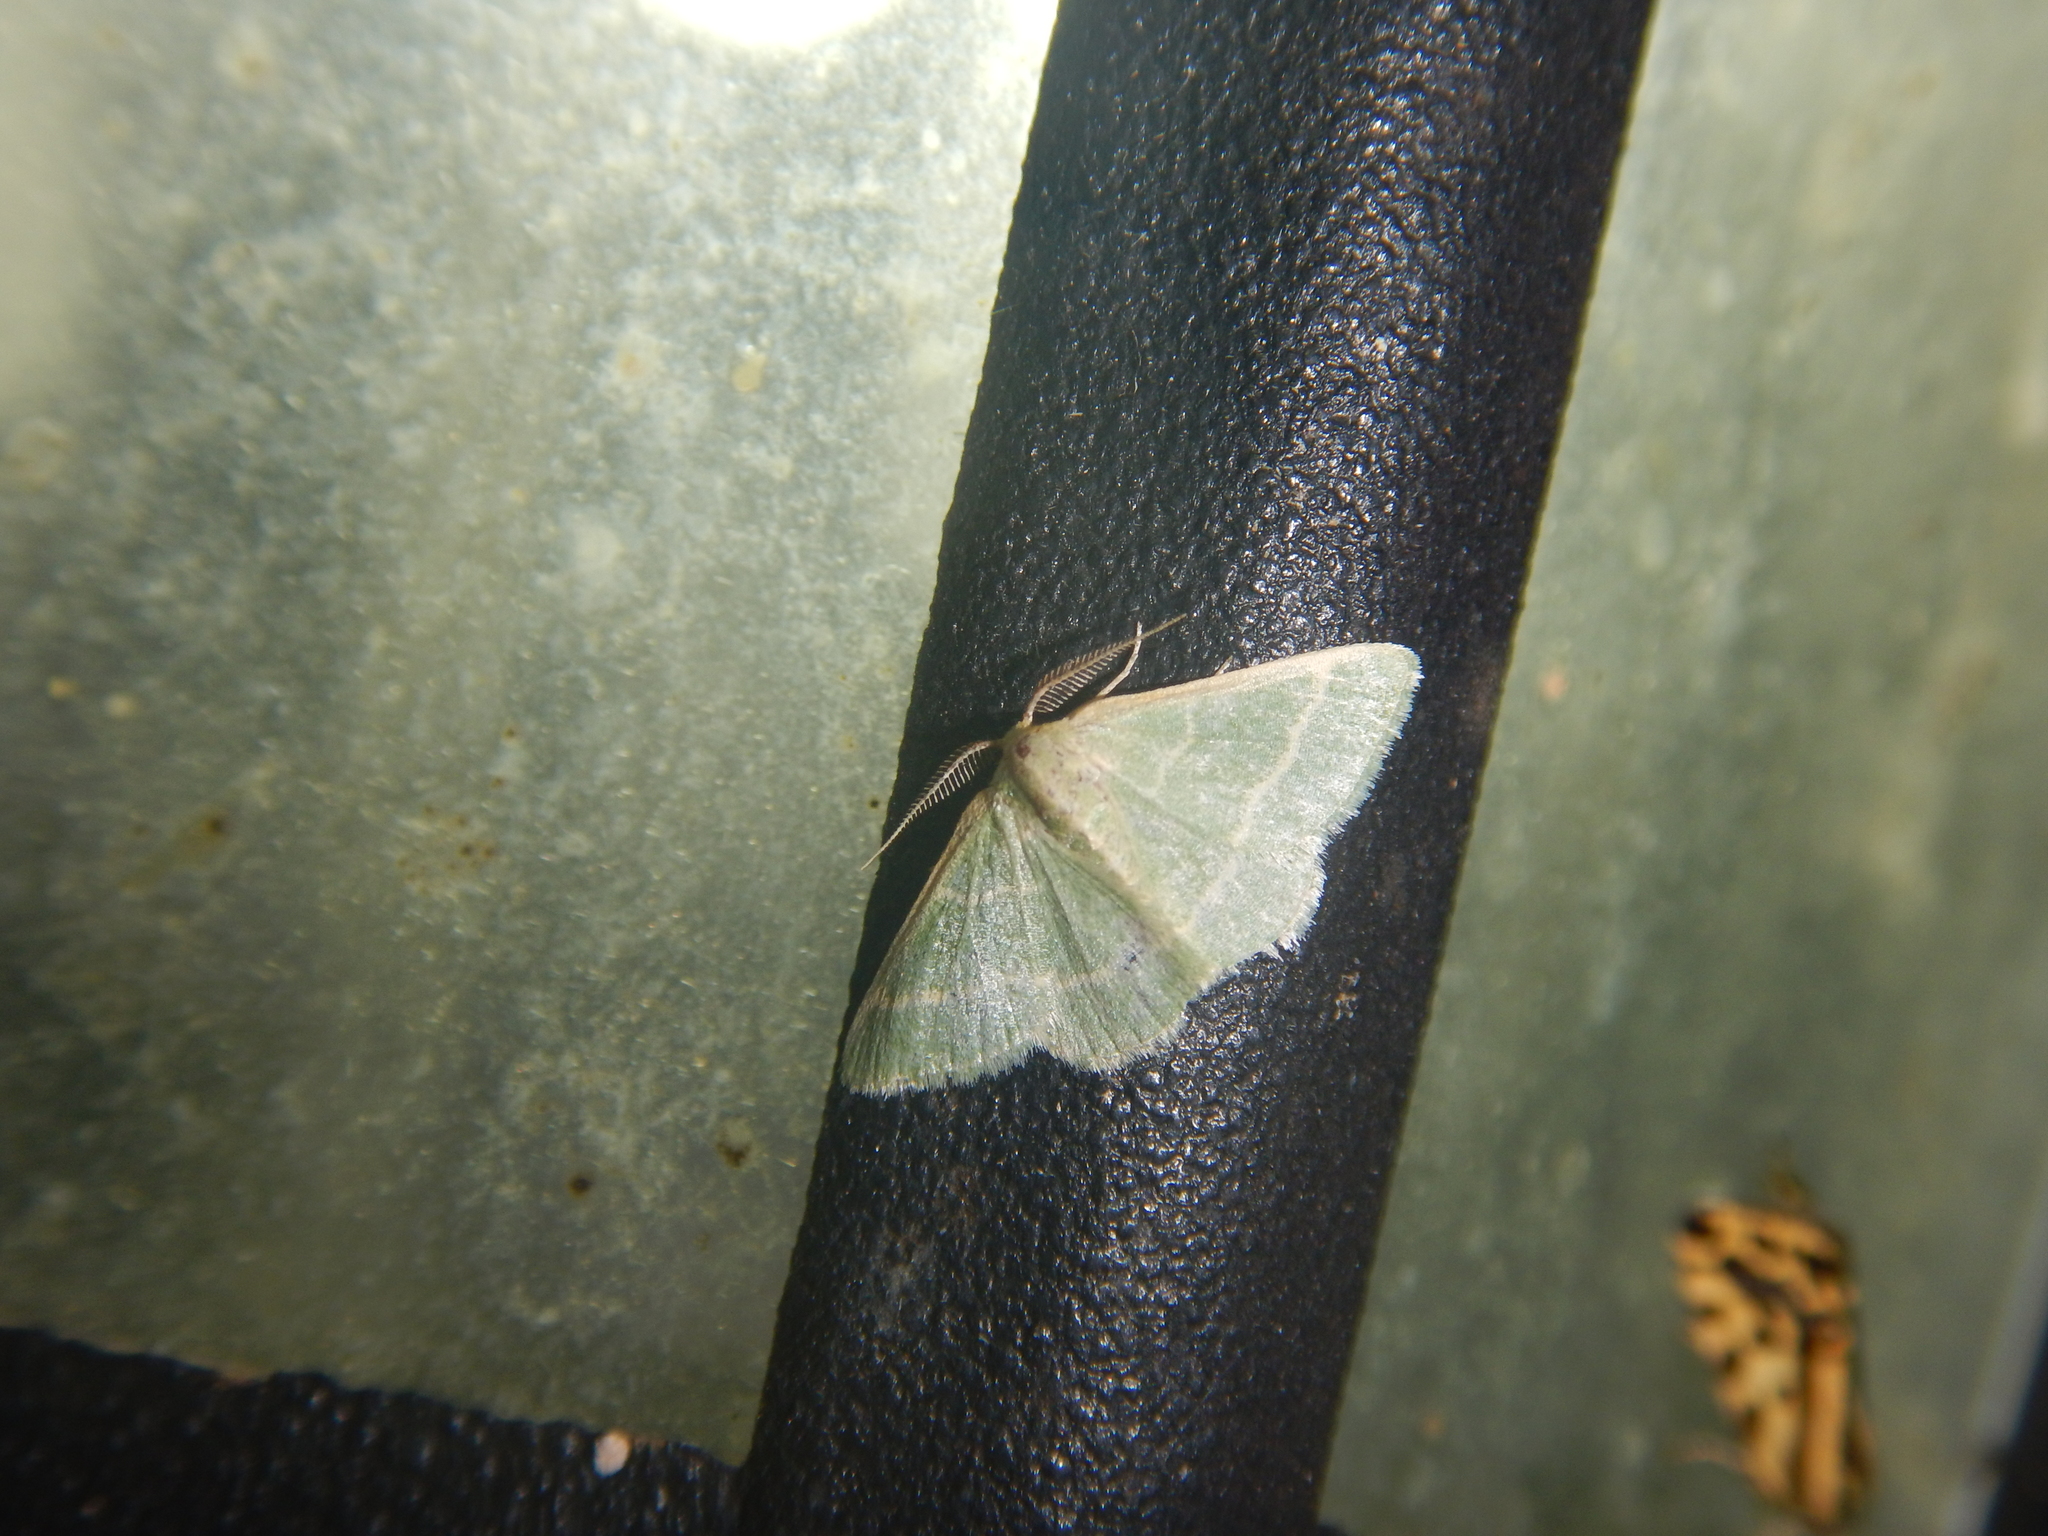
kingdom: Animalia
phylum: Arthropoda
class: Insecta
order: Lepidoptera
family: Geometridae
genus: Microloxia
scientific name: Microloxia herbaria
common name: Herb emerald
